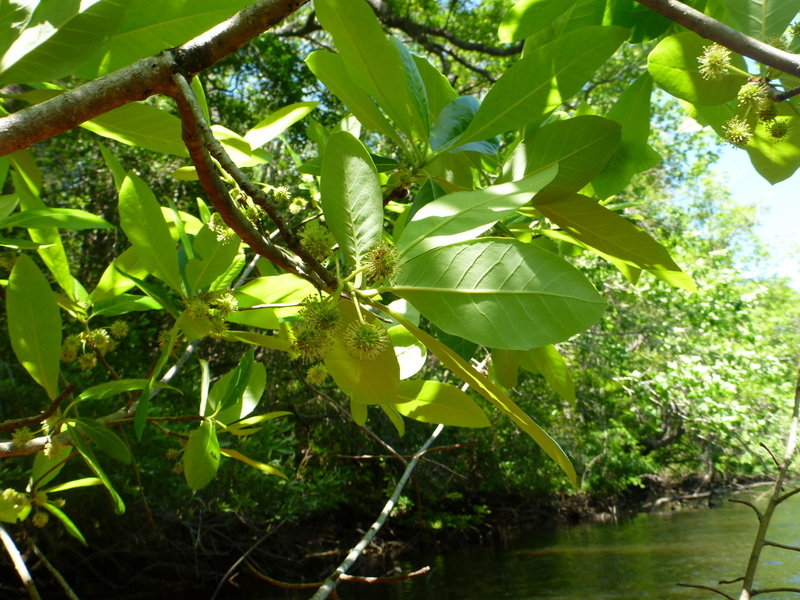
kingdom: Plantae
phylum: Tracheophyta
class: Magnoliopsida
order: Cornales
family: Nyssaceae
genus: Nyssa
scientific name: Nyssa ogeche
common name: Ogeechee tupelo
